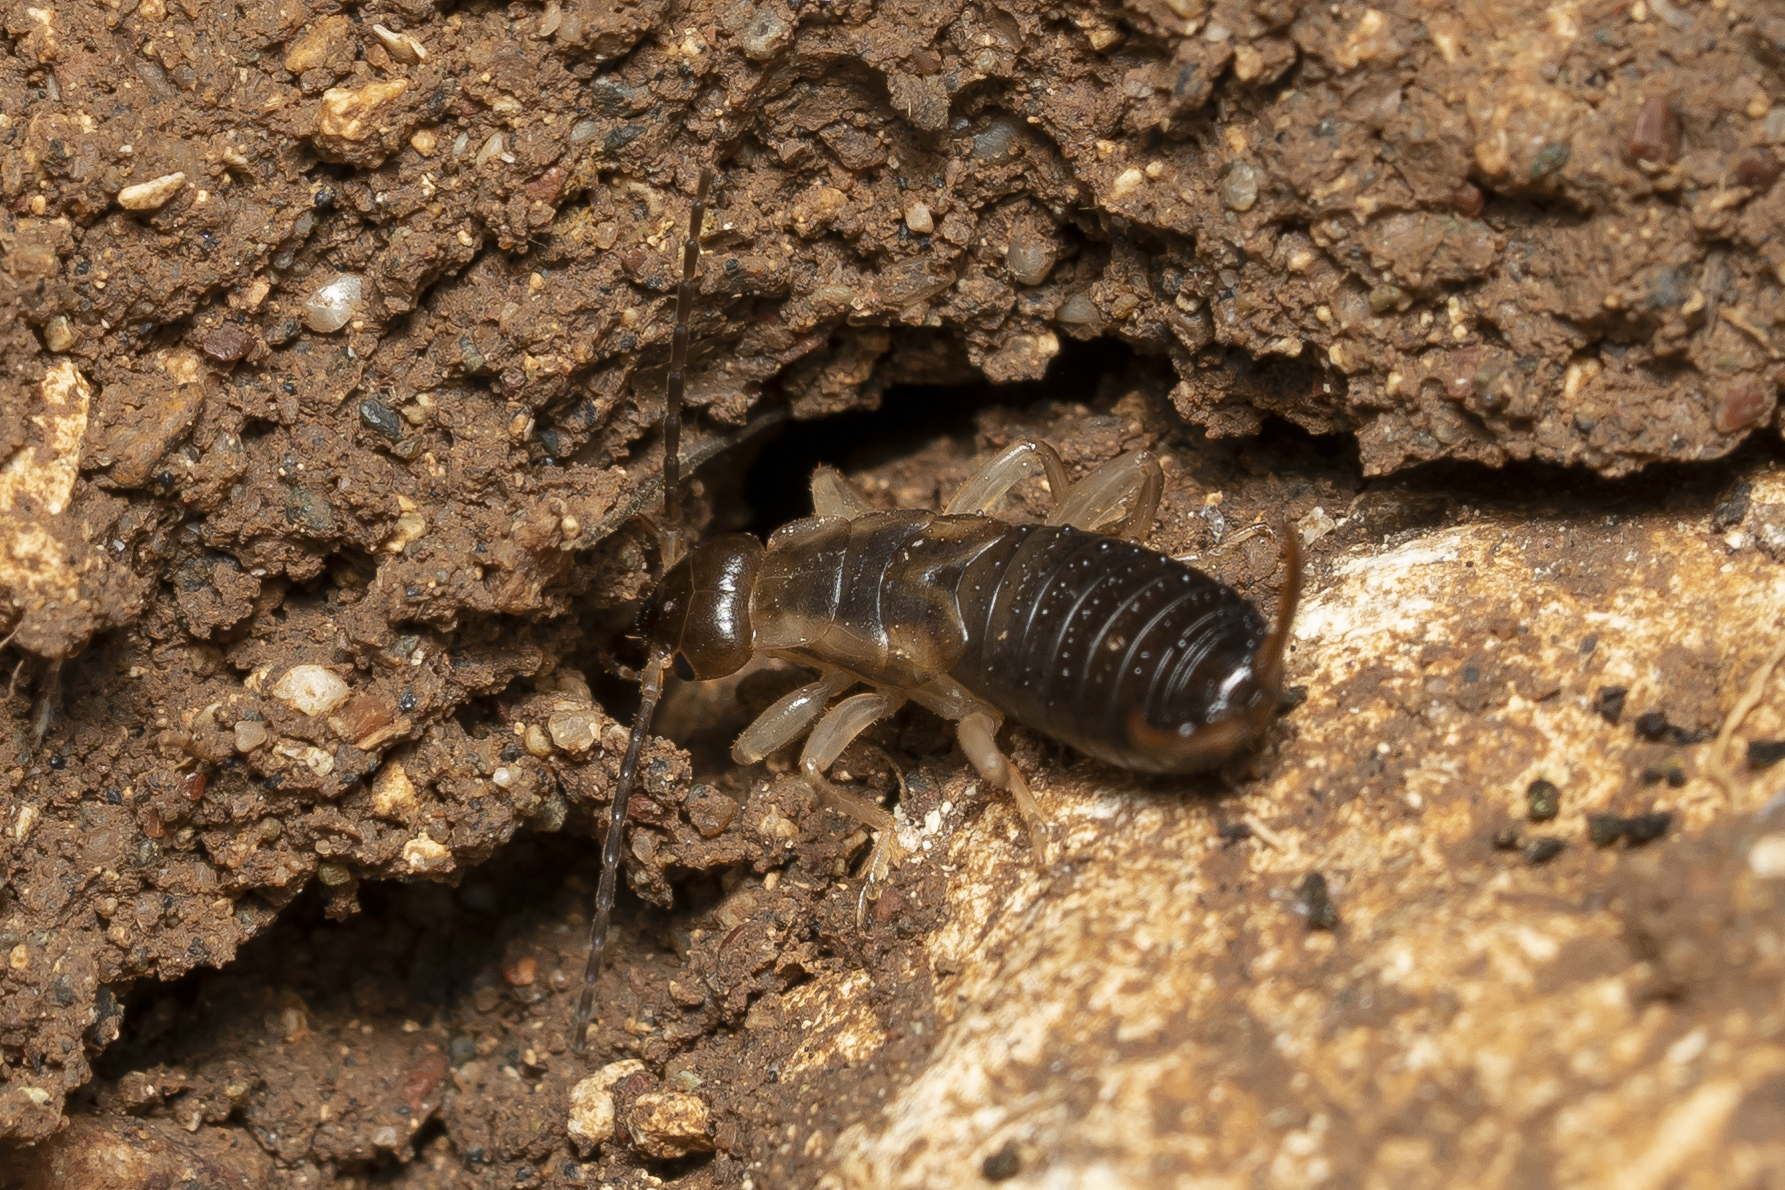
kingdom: Animalia
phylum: Arthropoda
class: Insecta
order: Dermaptera
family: Forficulidae
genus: Forficula
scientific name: Forficula lurida
